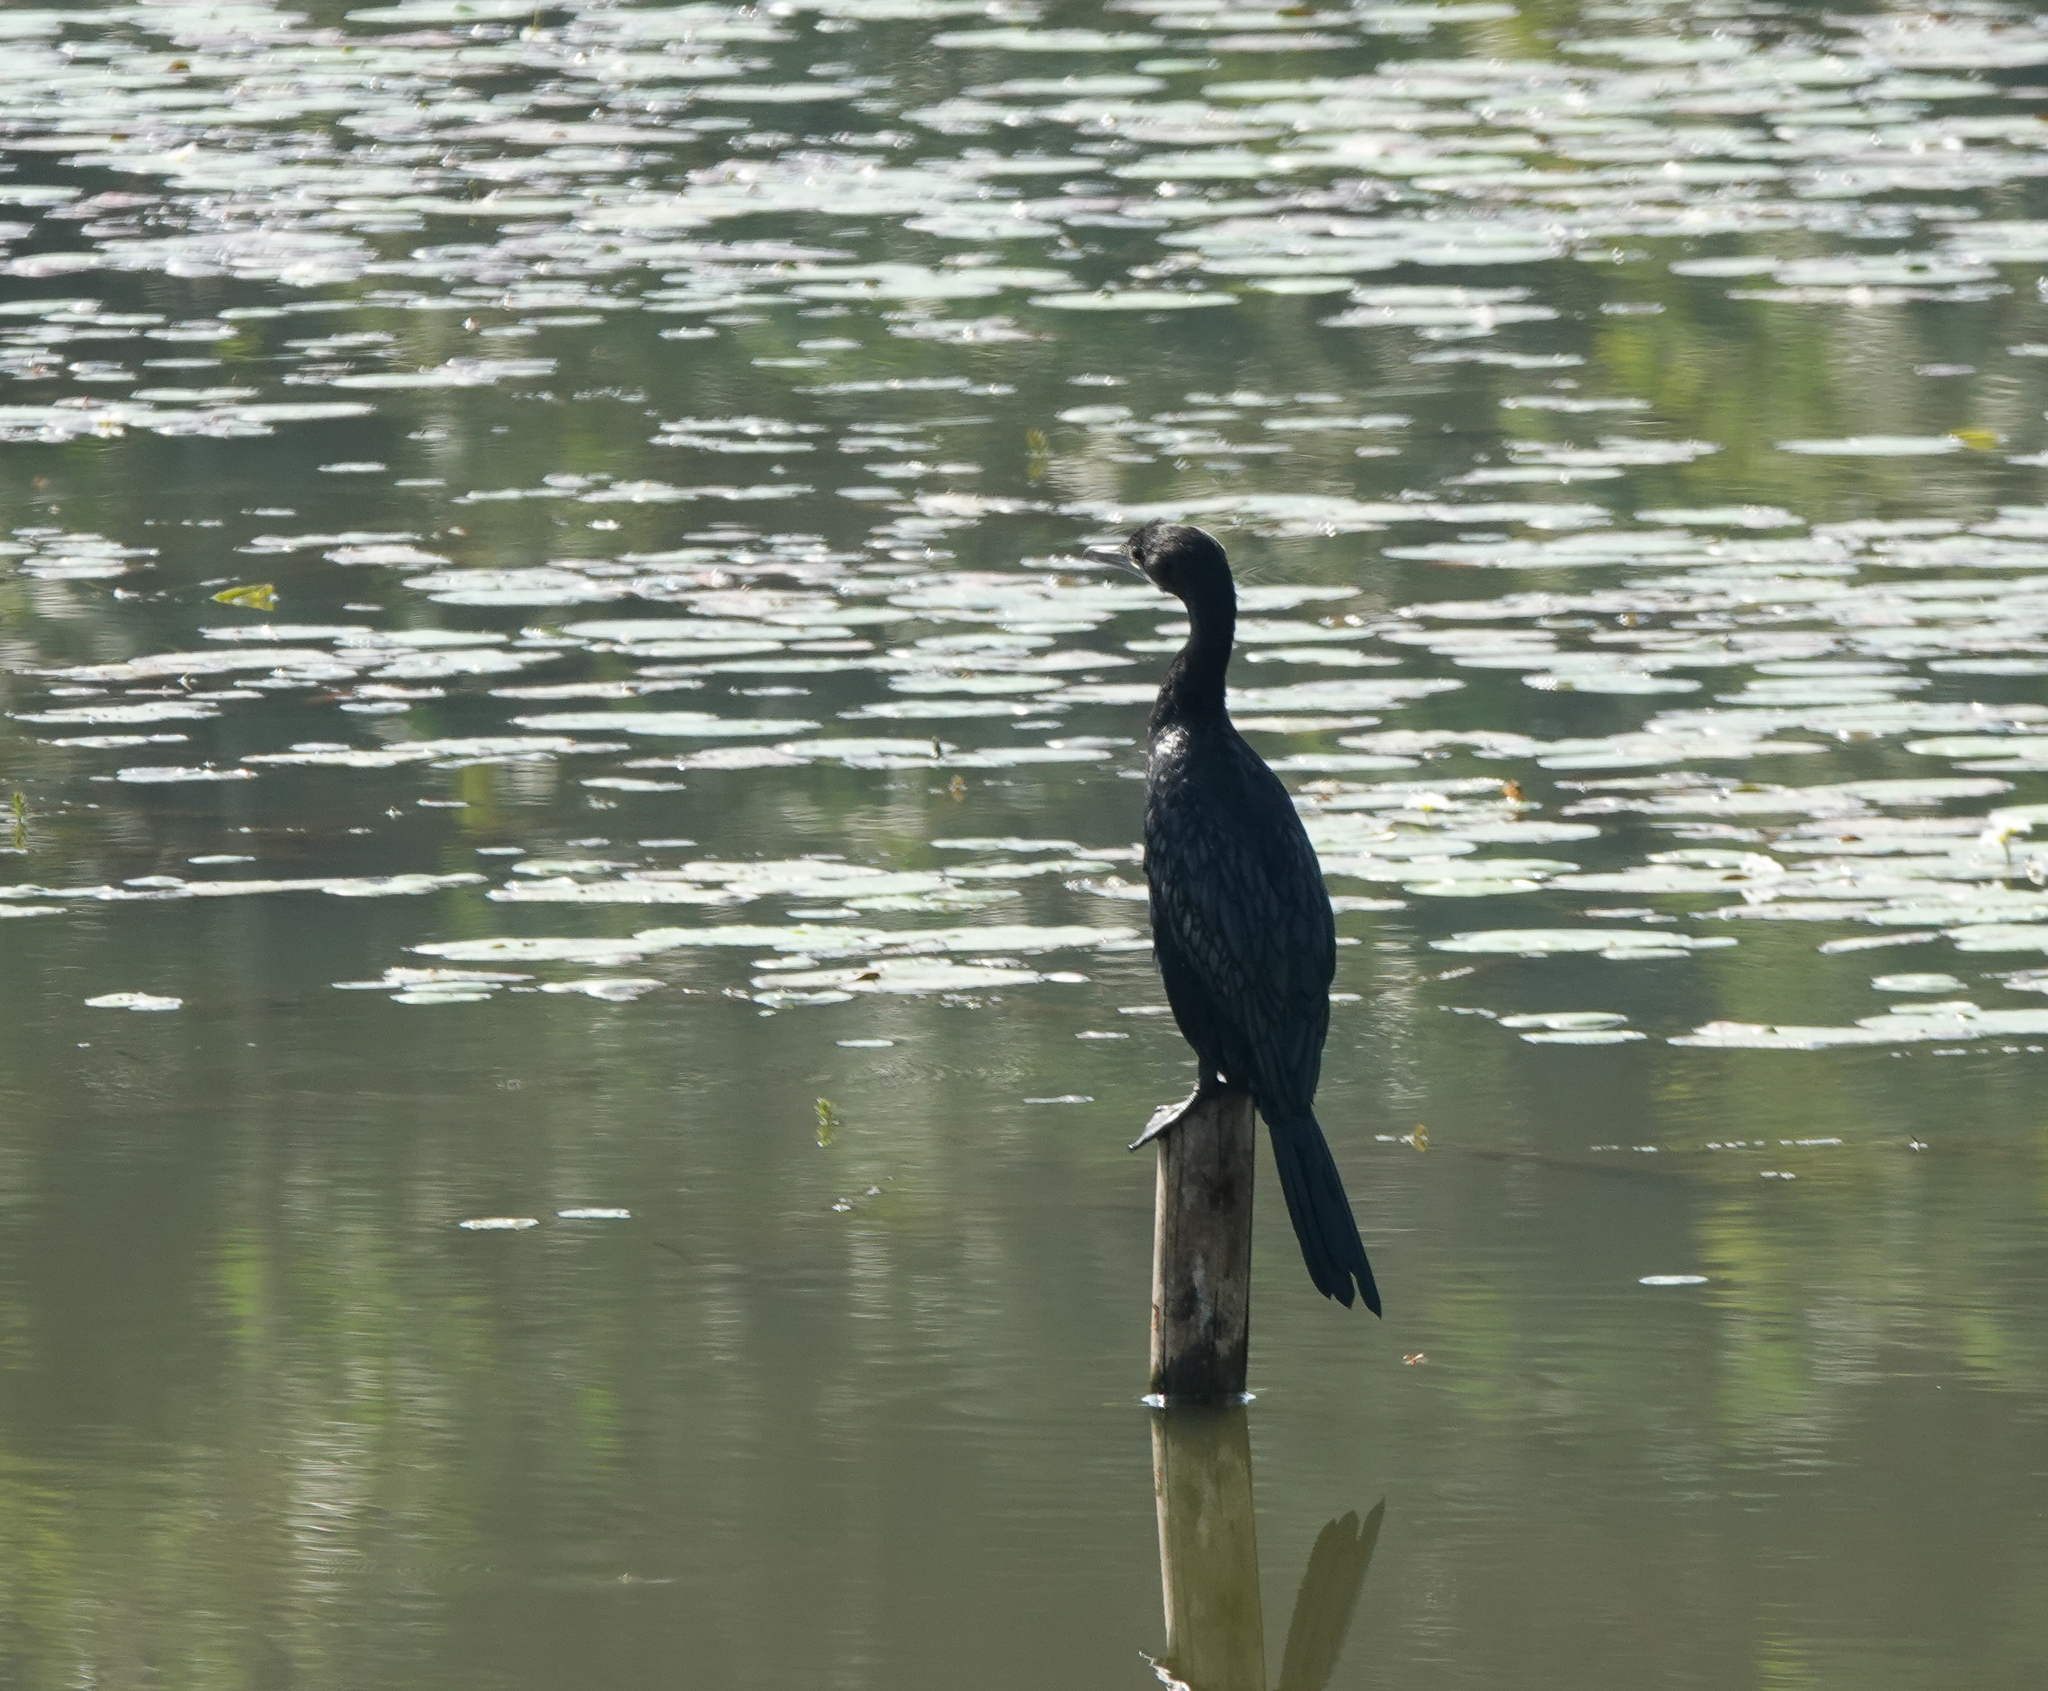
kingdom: Animalia
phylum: Chordata
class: Aves
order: Suliformes
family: Phalacrocoracidae
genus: Microcarbo
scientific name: Microcarbo niger
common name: Little cormorant
